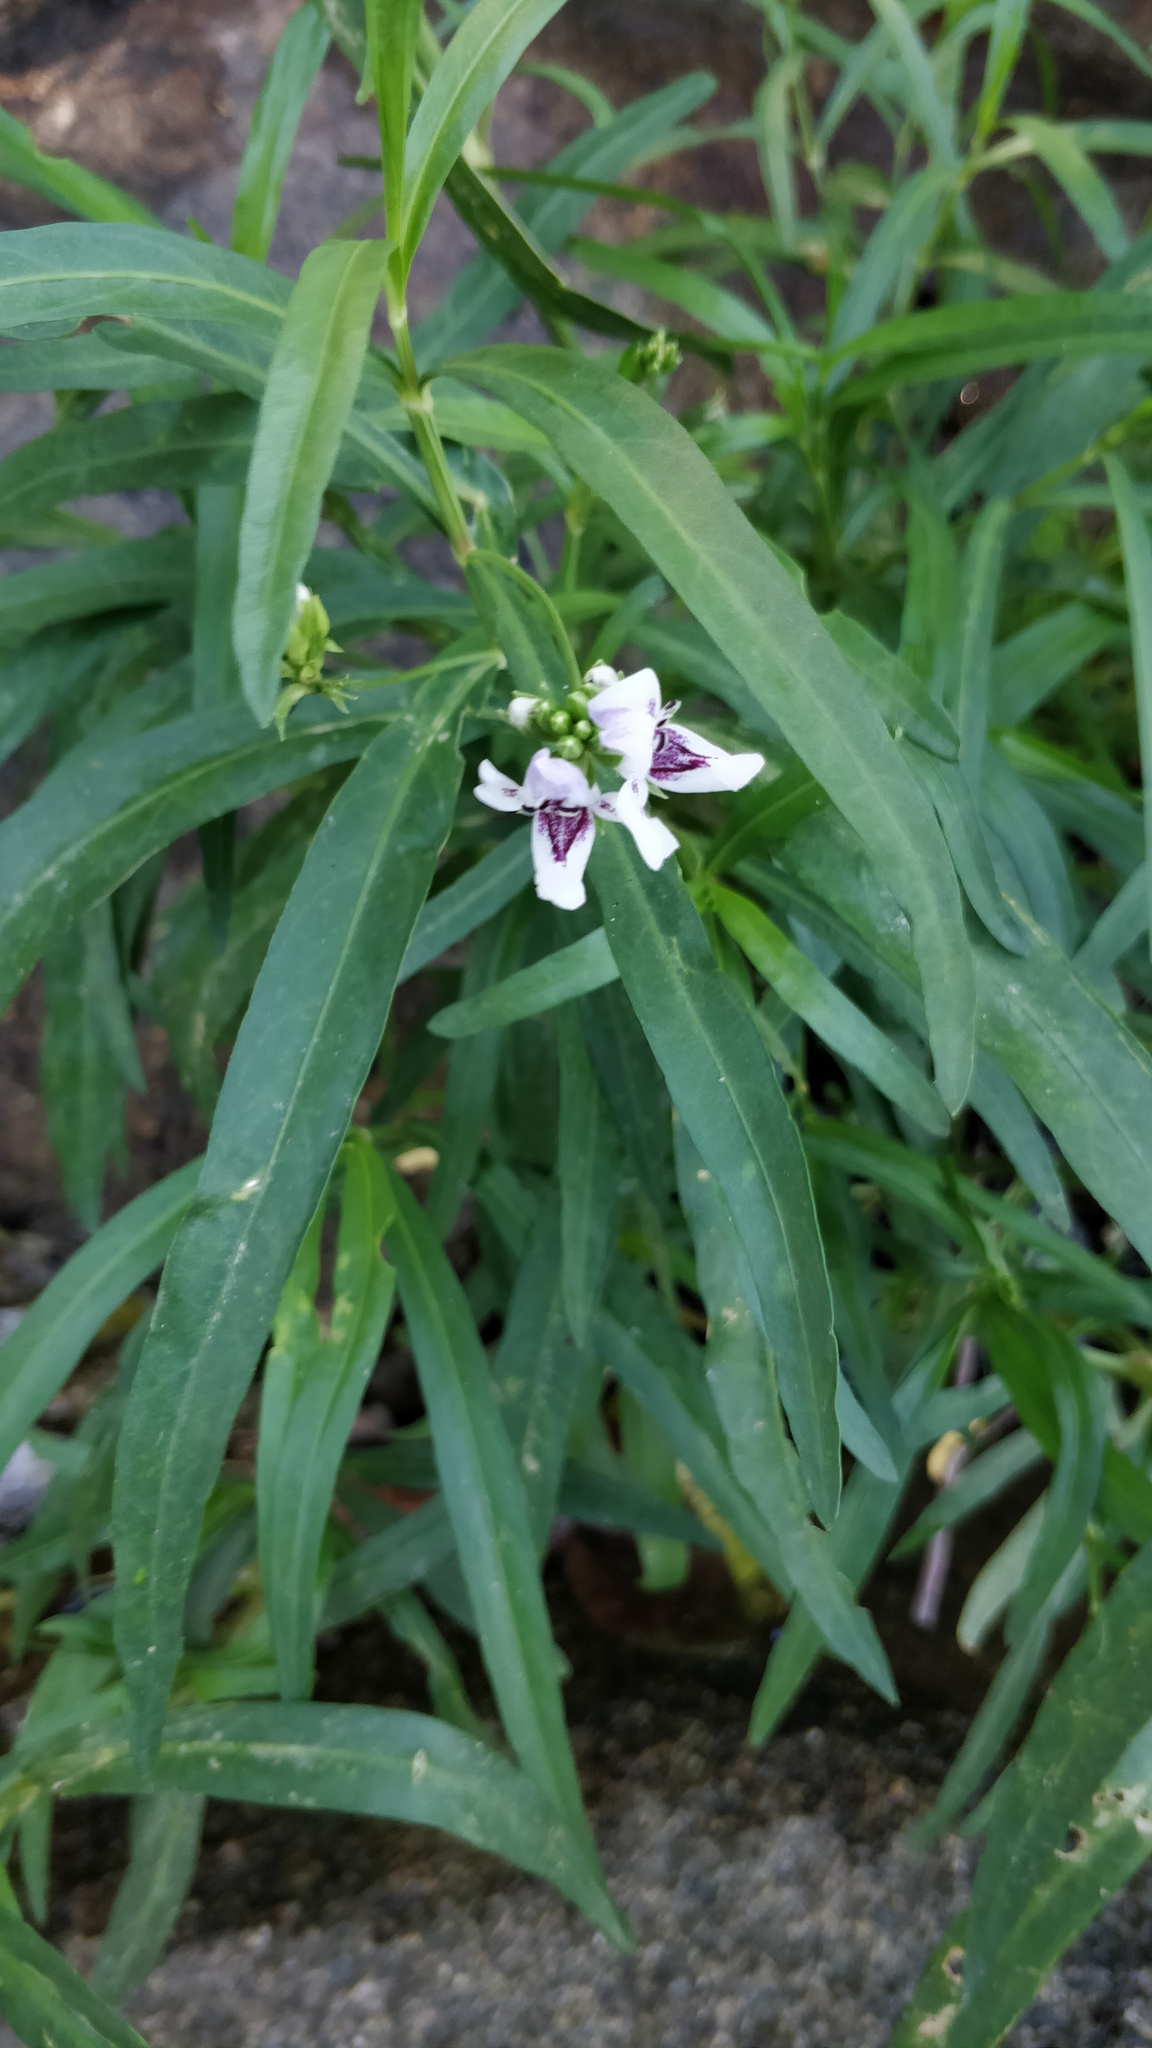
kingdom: Plantae
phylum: Tracheophyta
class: Magnoliopsida
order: Lamiales
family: Acanthaceae
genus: Dianthera
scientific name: Dianthera americana
